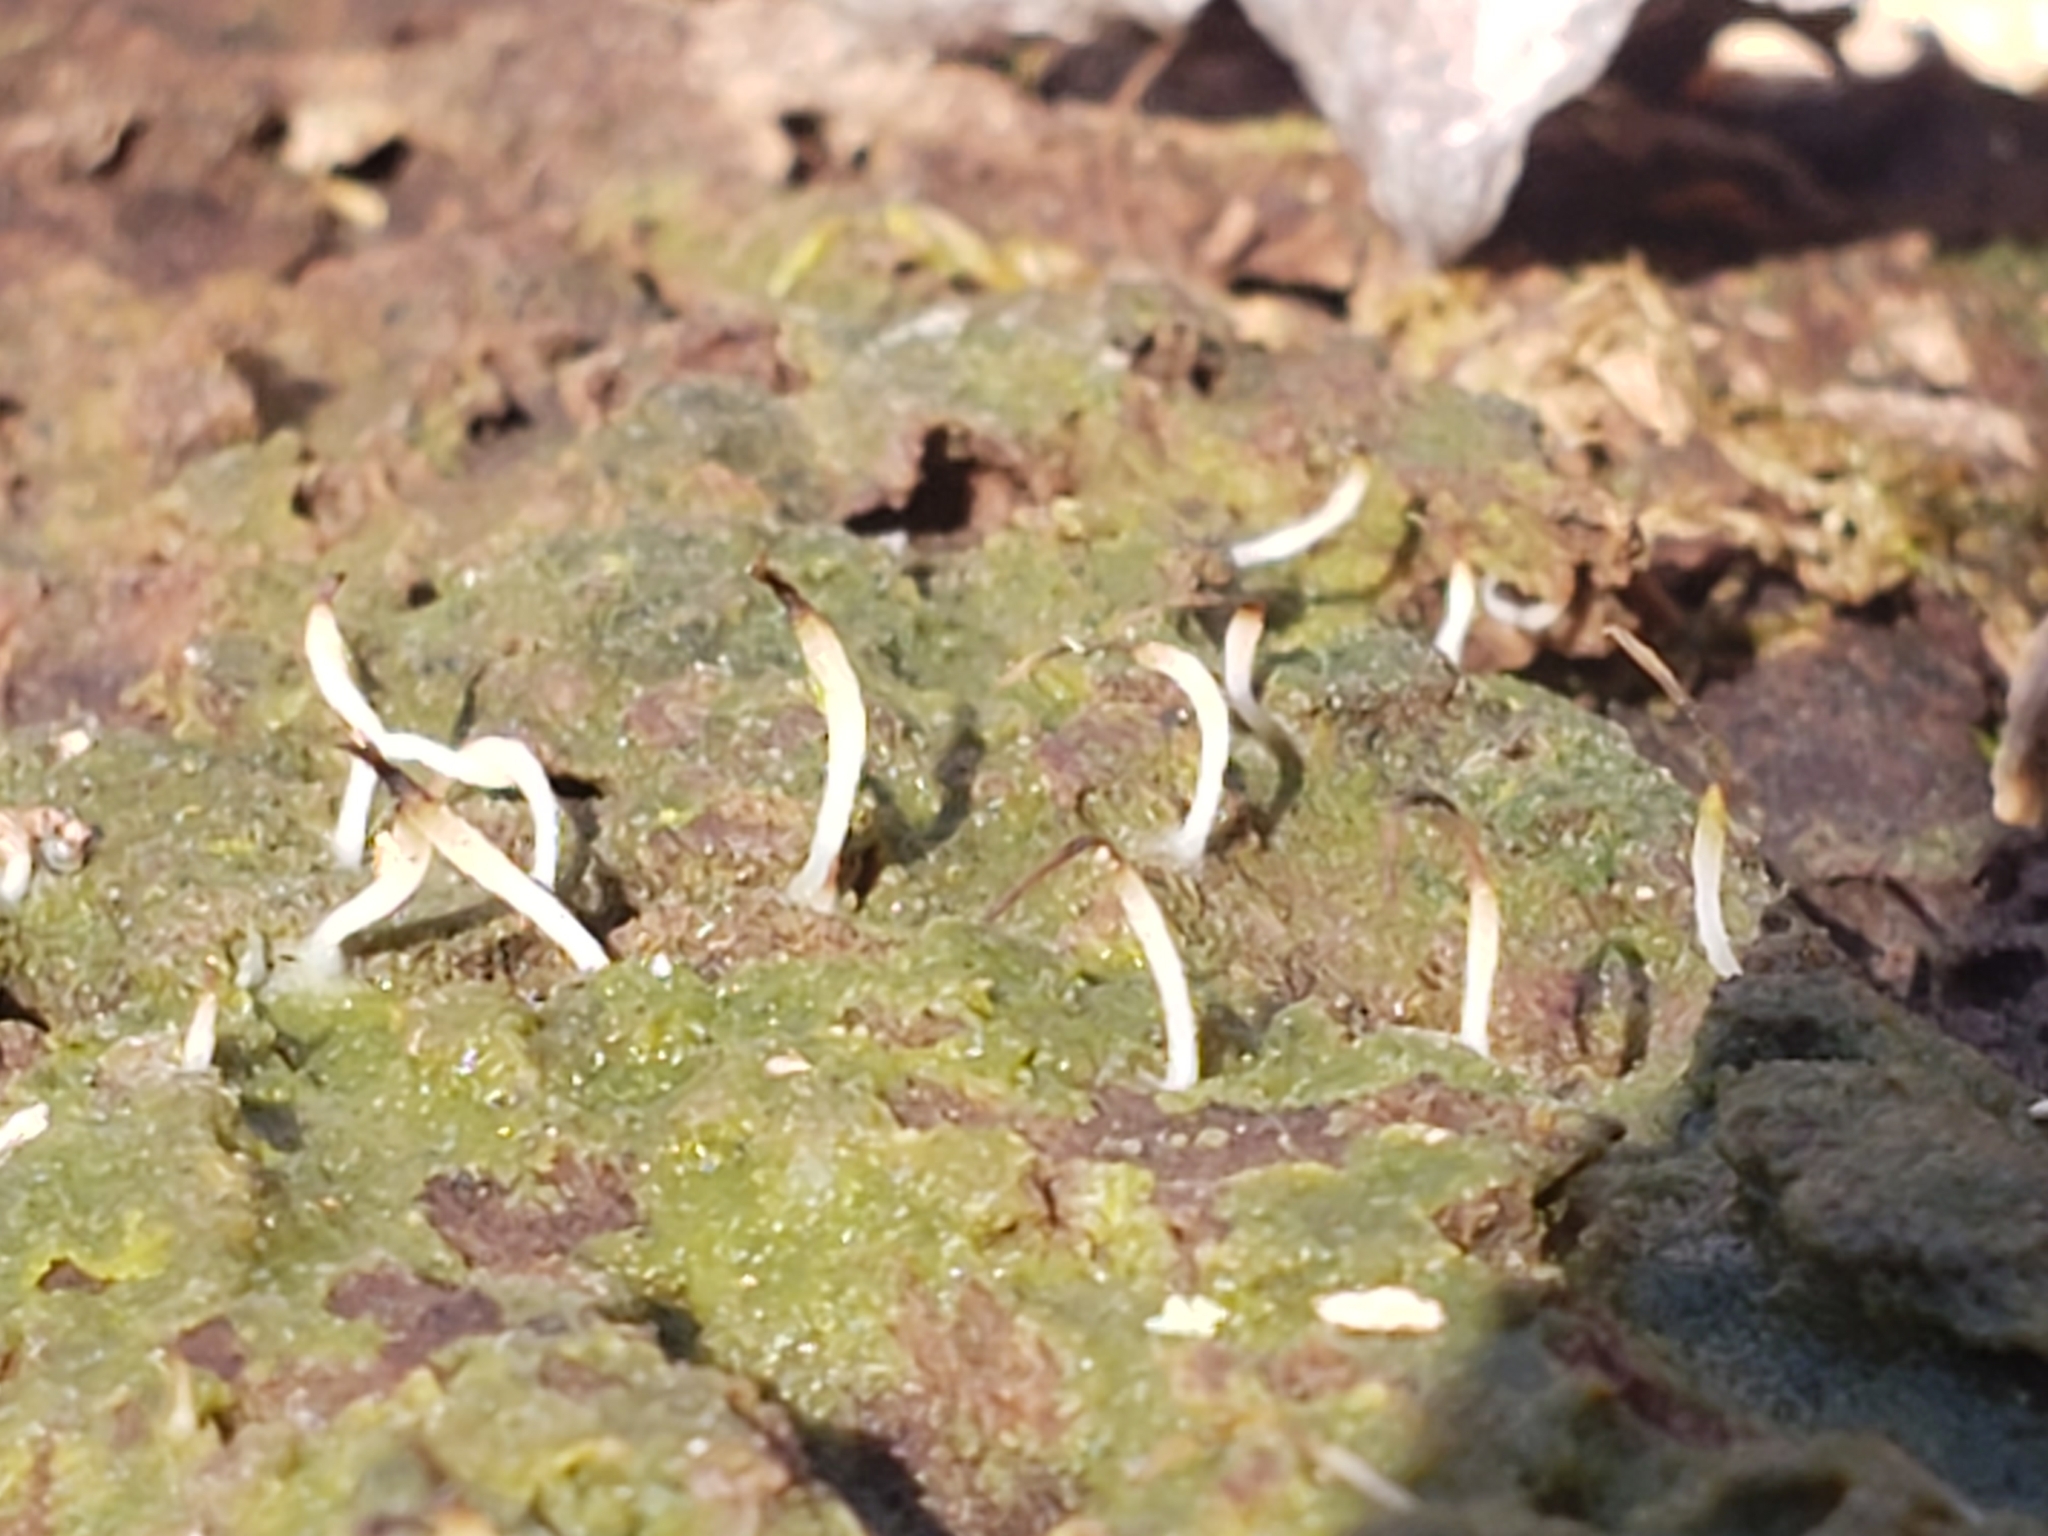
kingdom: Fungi
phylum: Basidiomycota
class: Agaricomycetes
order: Cantharellales
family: Hydnaceae
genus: Multiclavula
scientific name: Multiclavula mucida
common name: White green-algae coral
